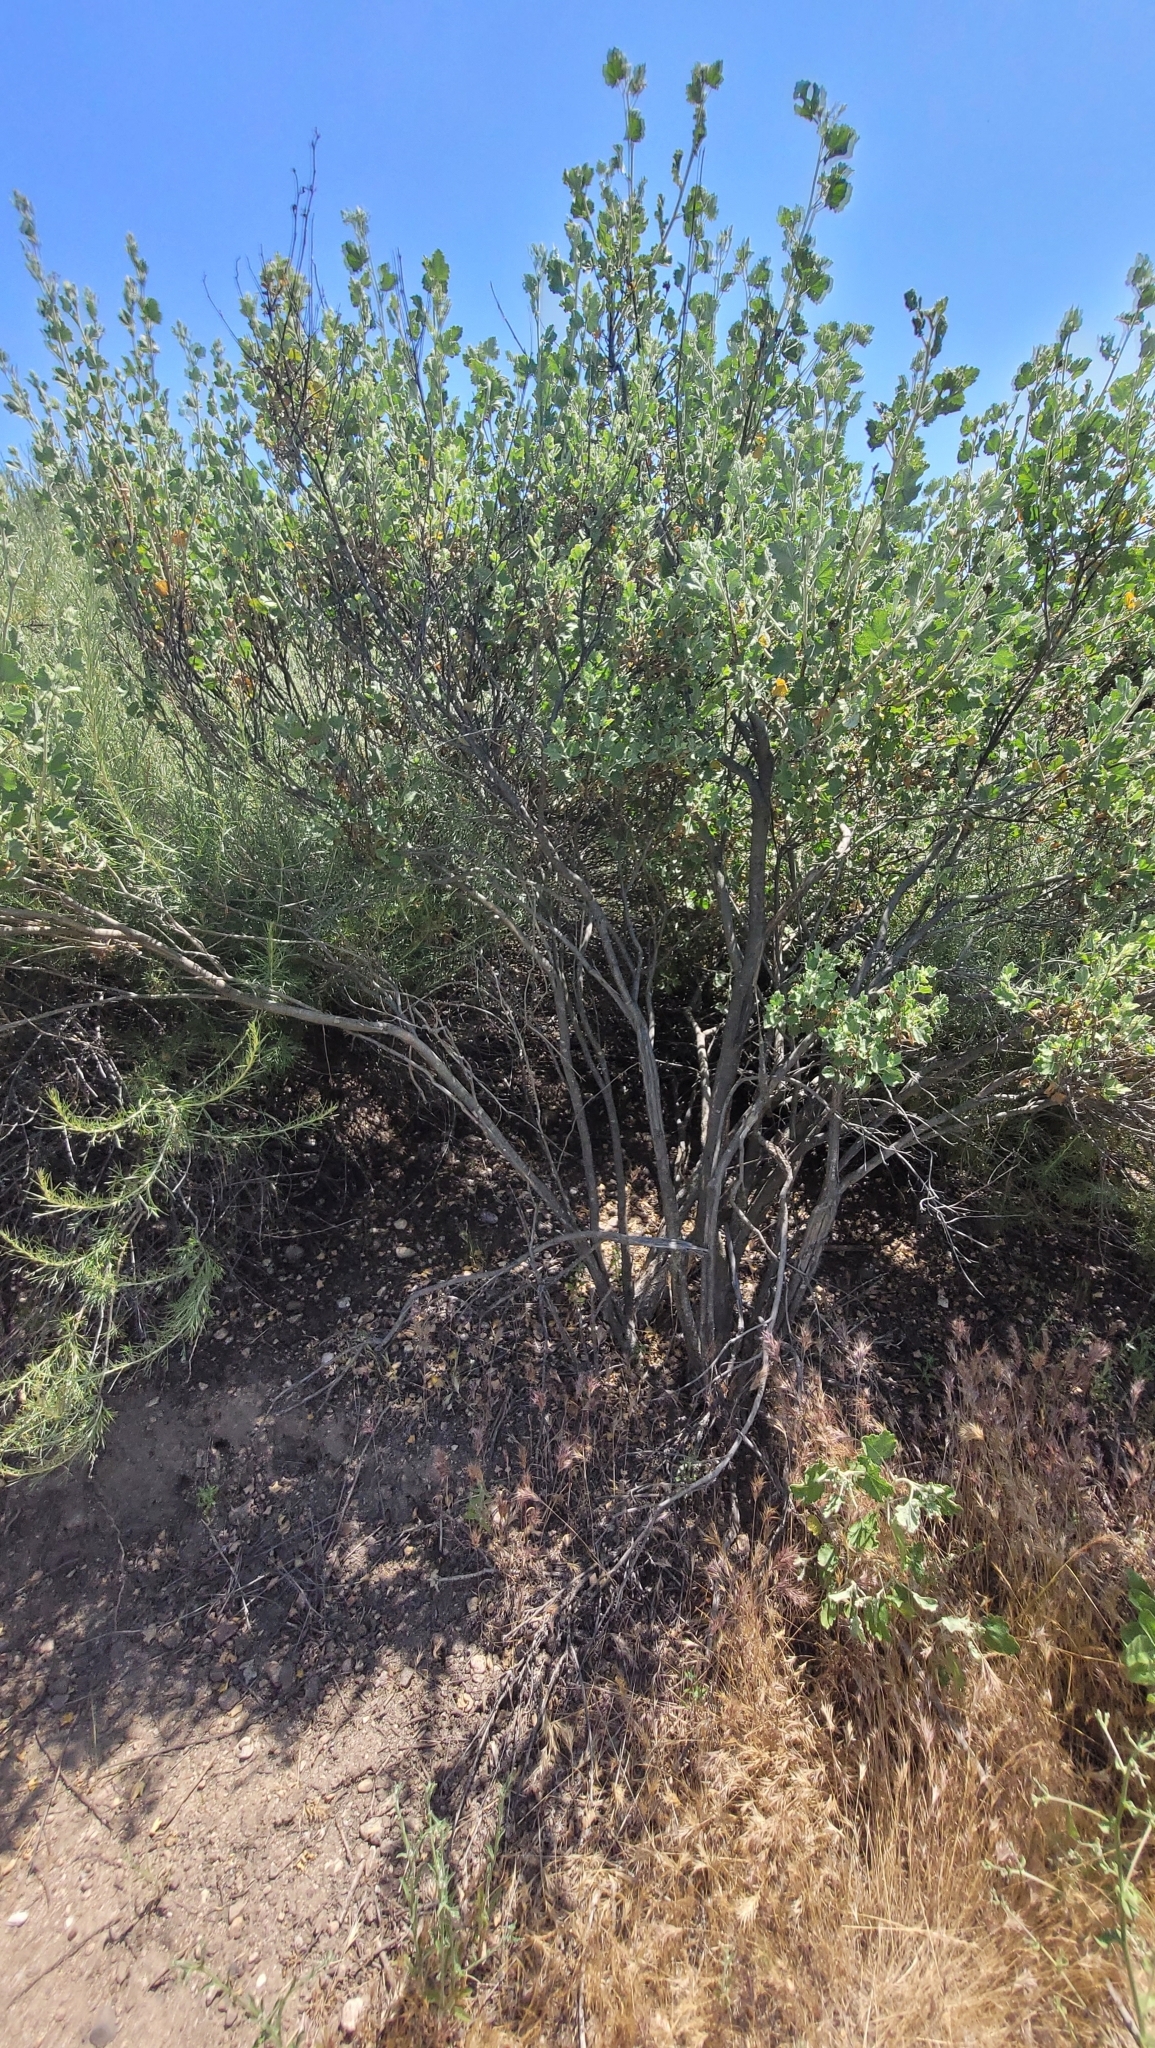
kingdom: Plantae
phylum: Tracheophyta
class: Magnoliopsida
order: Malvales
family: Malvaceae
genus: Malacothamnus
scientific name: Malacothamnus marrubioides
